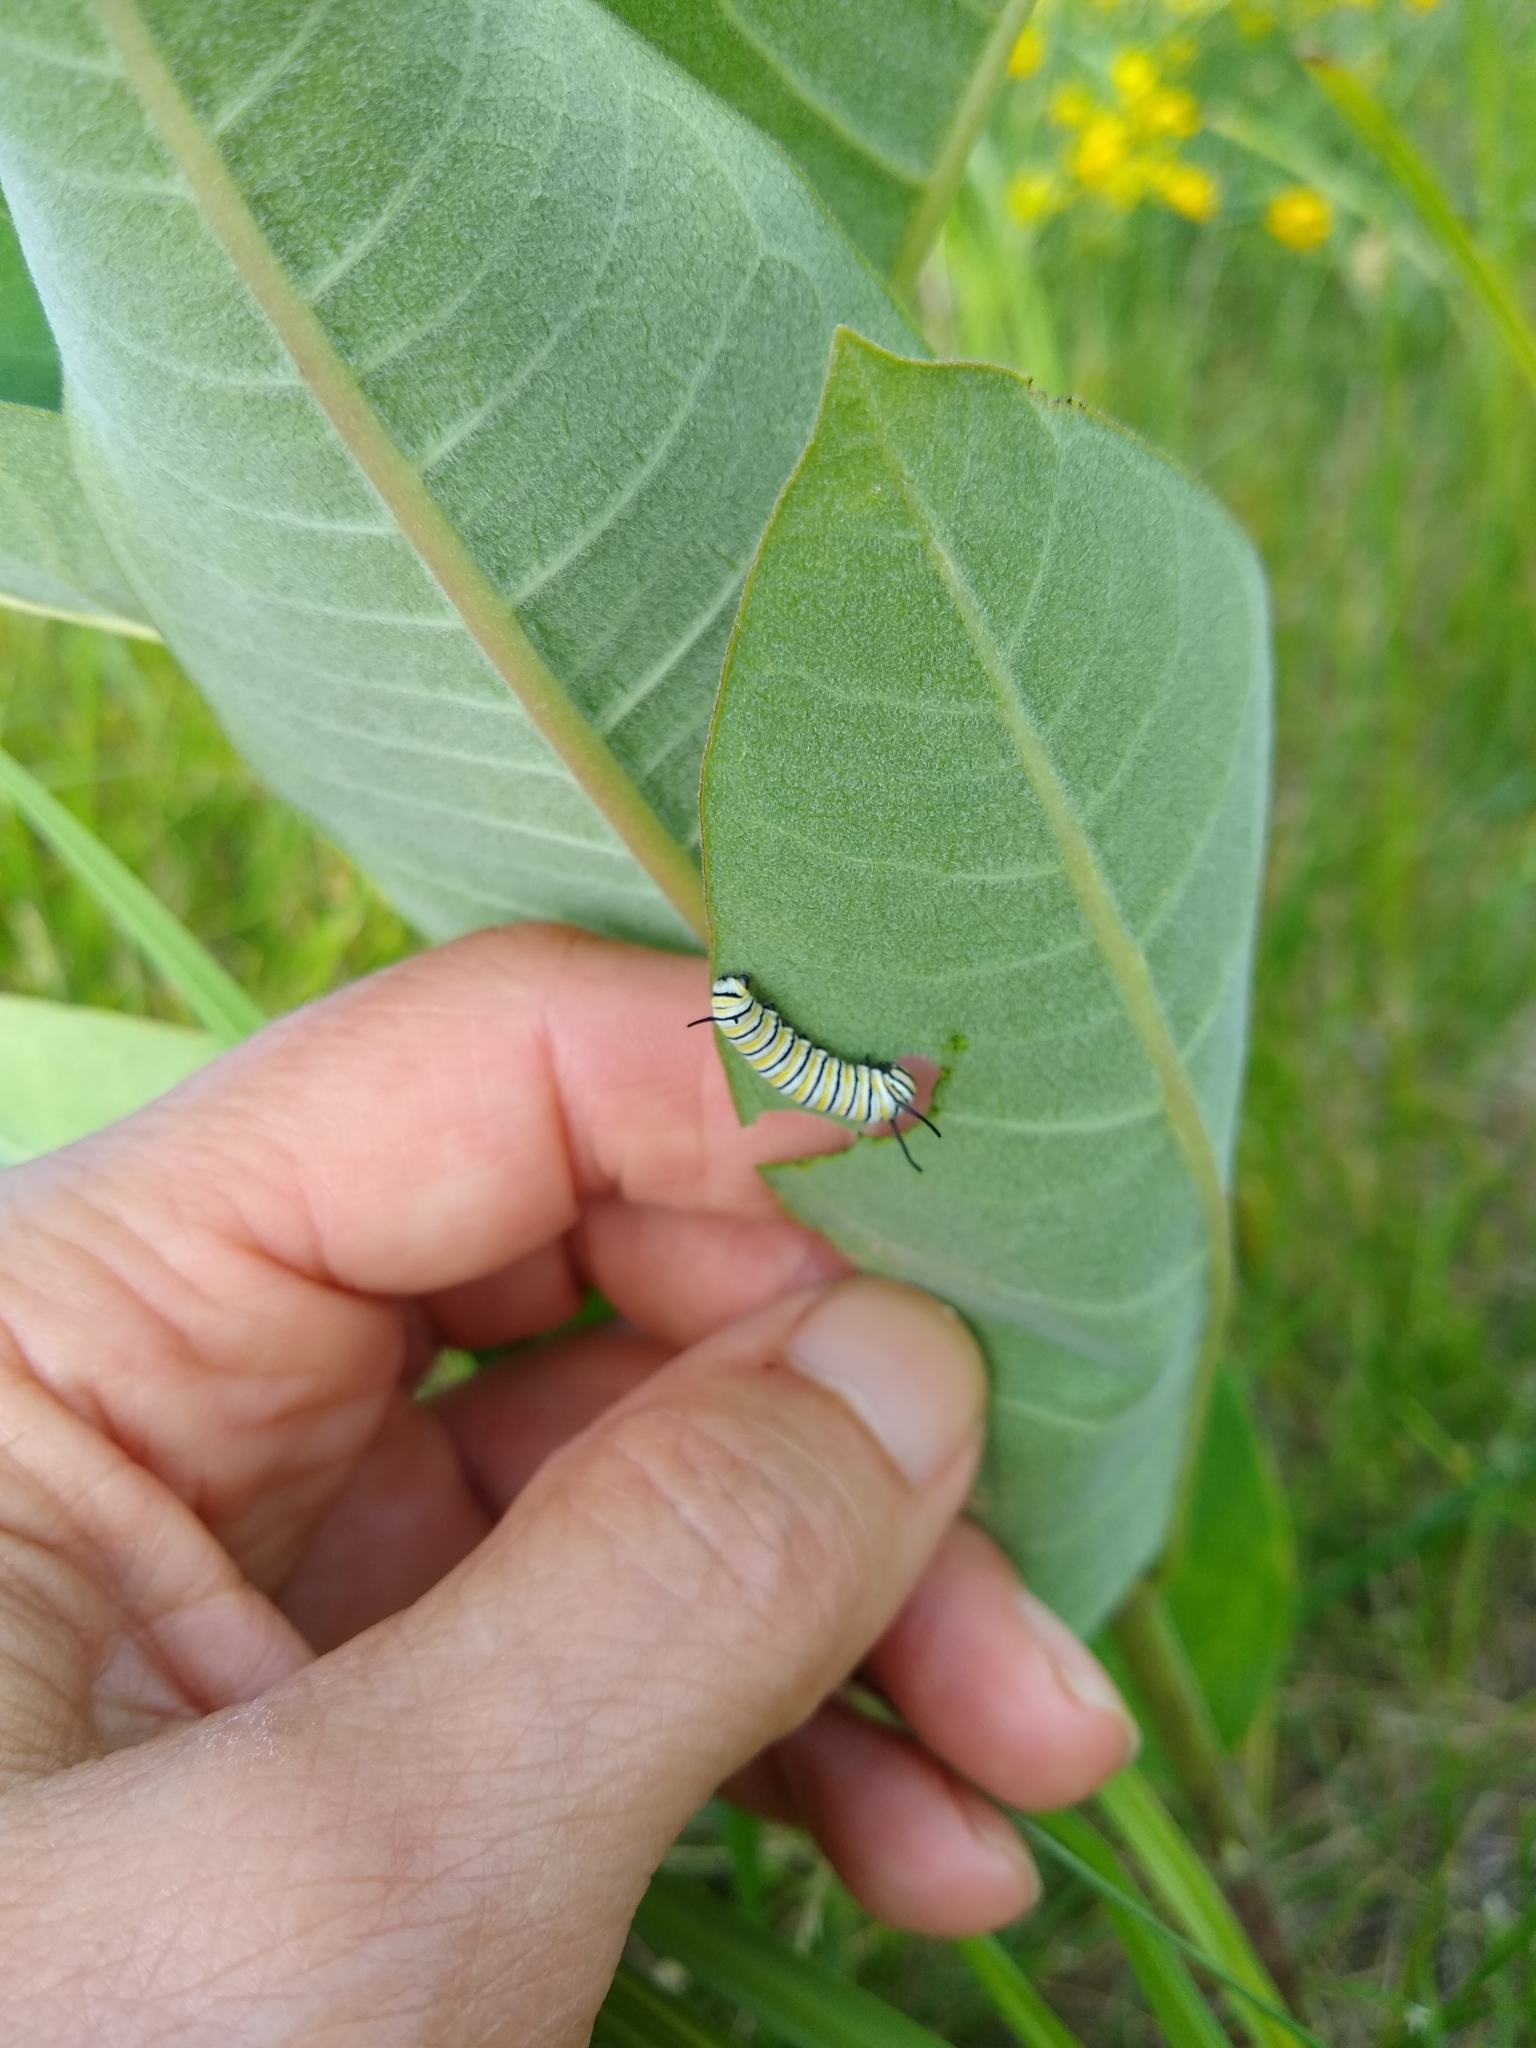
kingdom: Animalia
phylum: Arthropoda
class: Insecta
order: Lepidoptera
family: Nymphalidae
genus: Danaus
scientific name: Danaus plexippus
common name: Monarch
